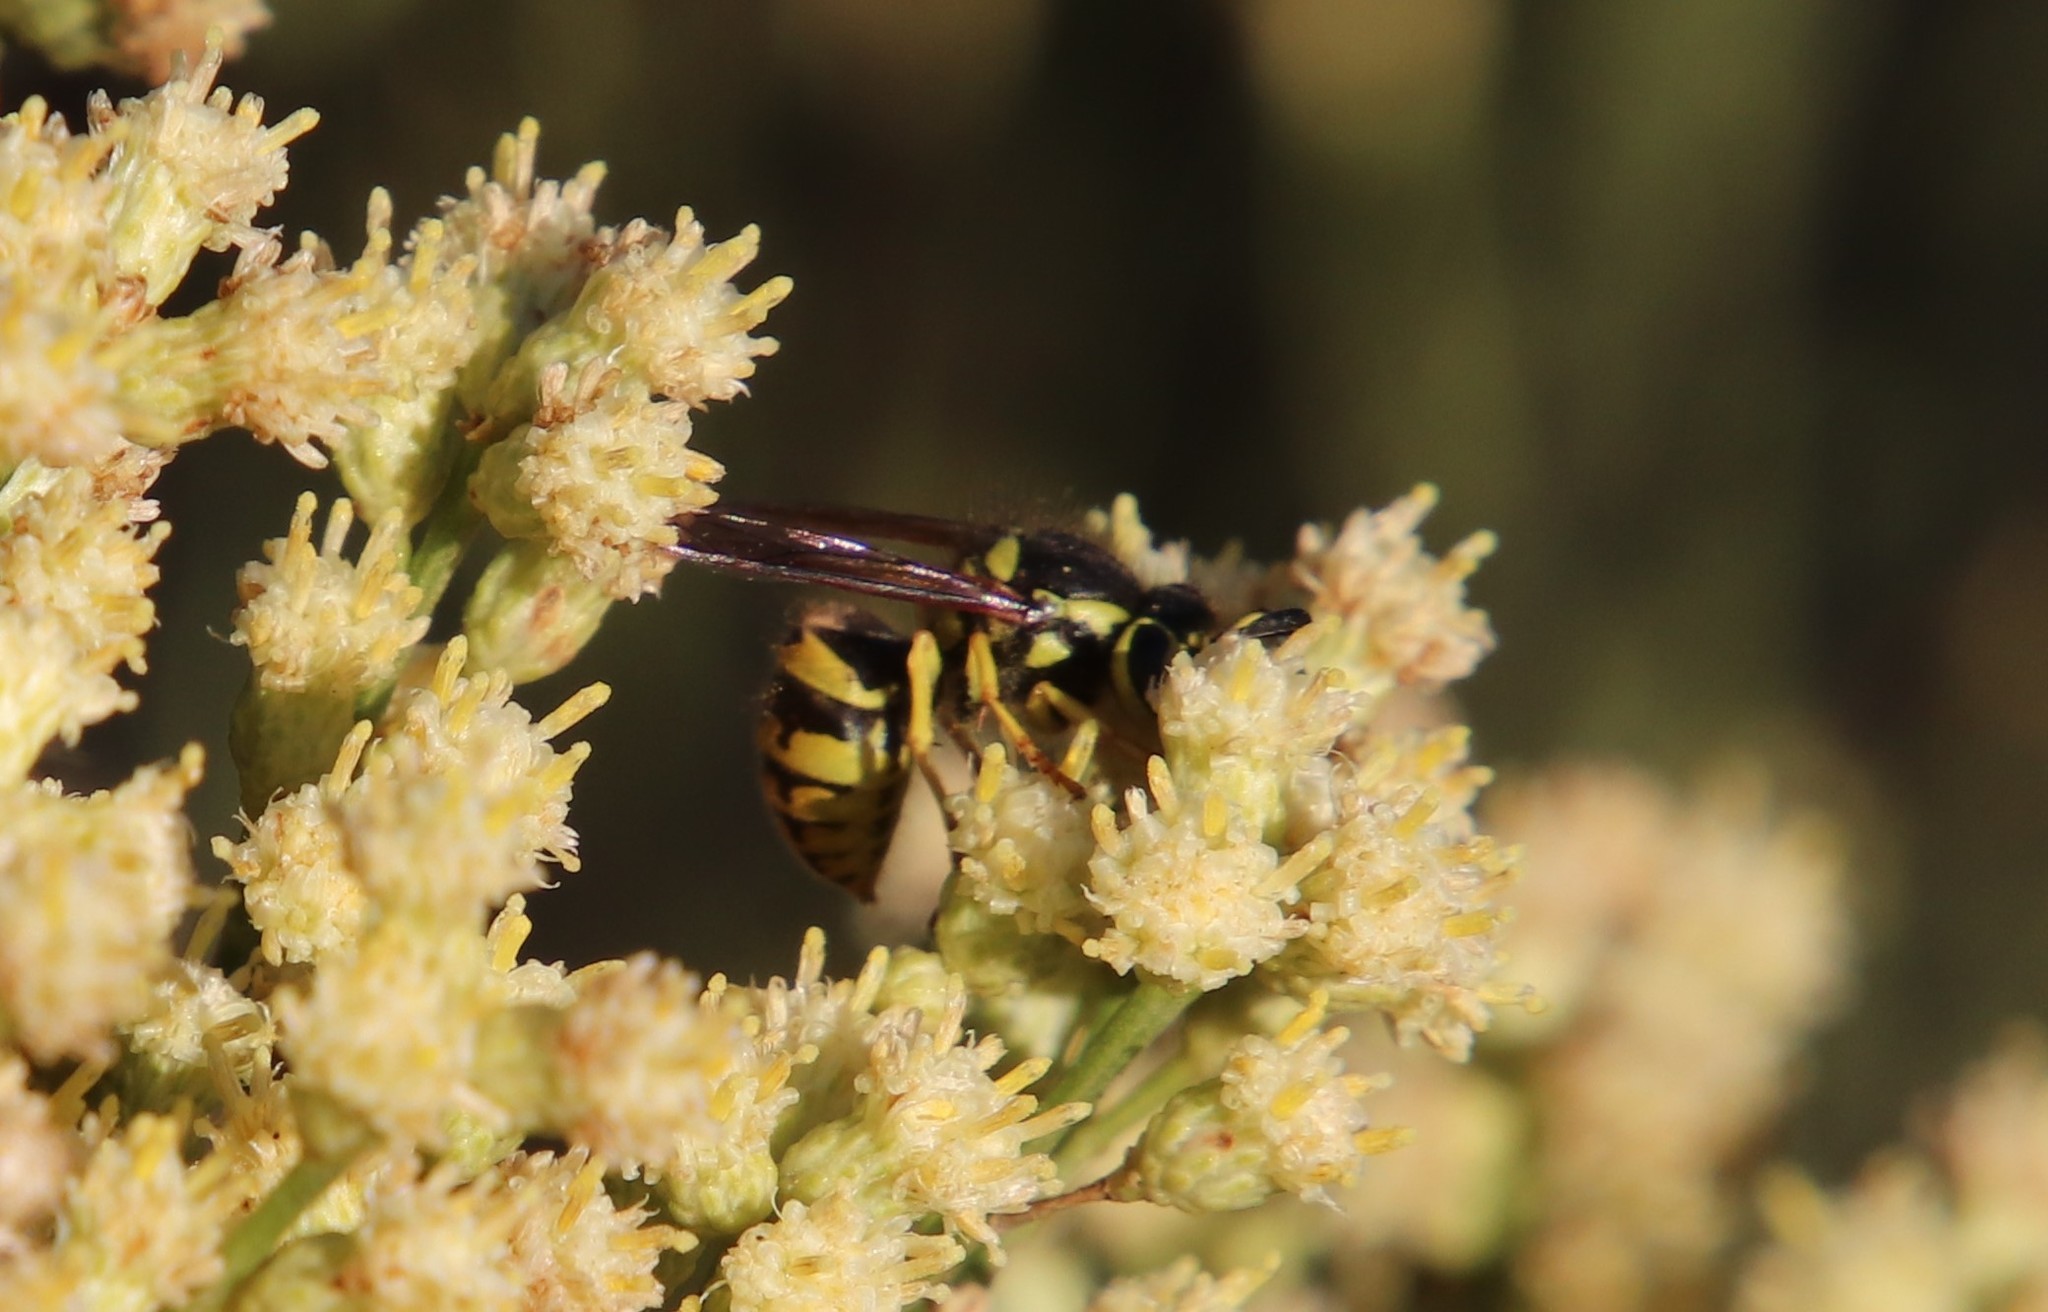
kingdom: Animalia
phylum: Arthropoda
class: Insecta
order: Hymenoptera
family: Vespidae
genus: Vespula
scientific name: Vespula pensylvanica
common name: Western yellowjacket
